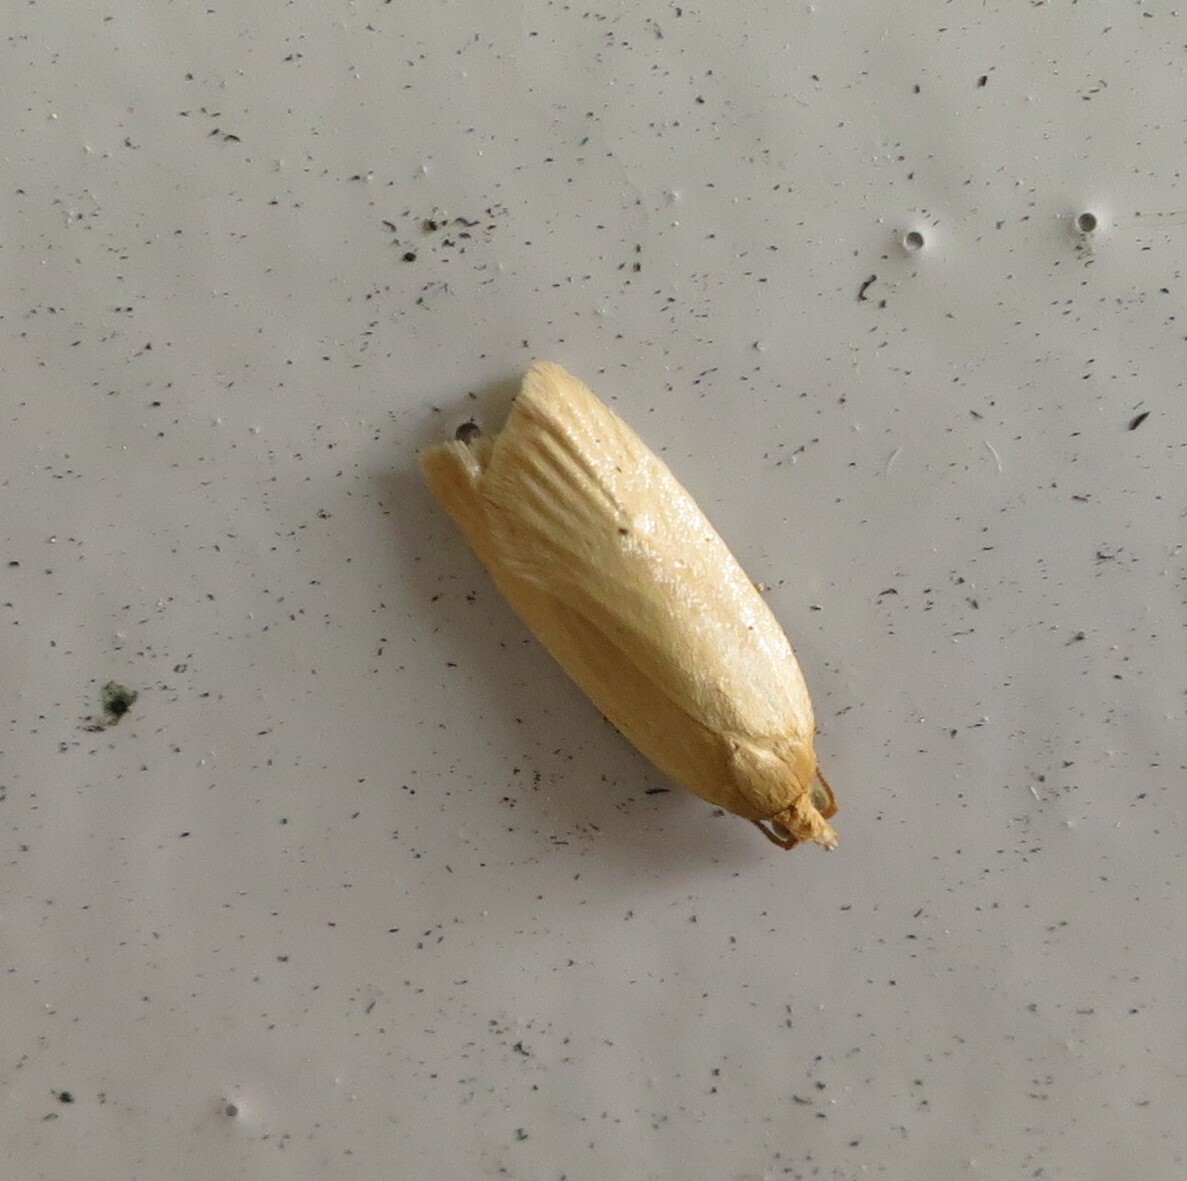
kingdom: Animalia
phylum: Arthropoda
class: Insecta
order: Lepidoptera
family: Tortricidae
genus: Clepsis
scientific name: Clepsis
